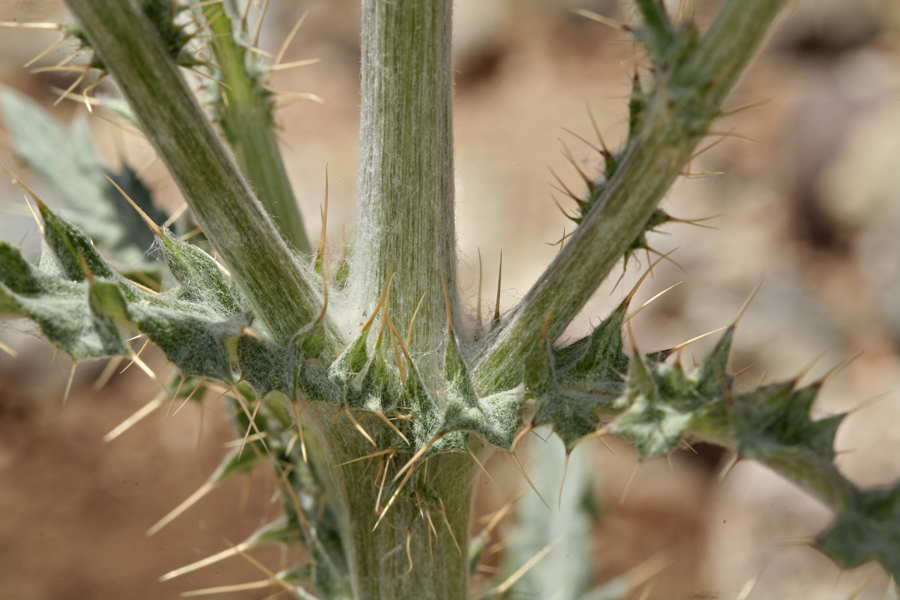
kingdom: Plantae
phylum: Tracheophyta
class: Magnoliopsida
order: Asterales
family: Asteraceae
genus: Cirsium
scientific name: Cirsium occidentale
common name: Western thistle
